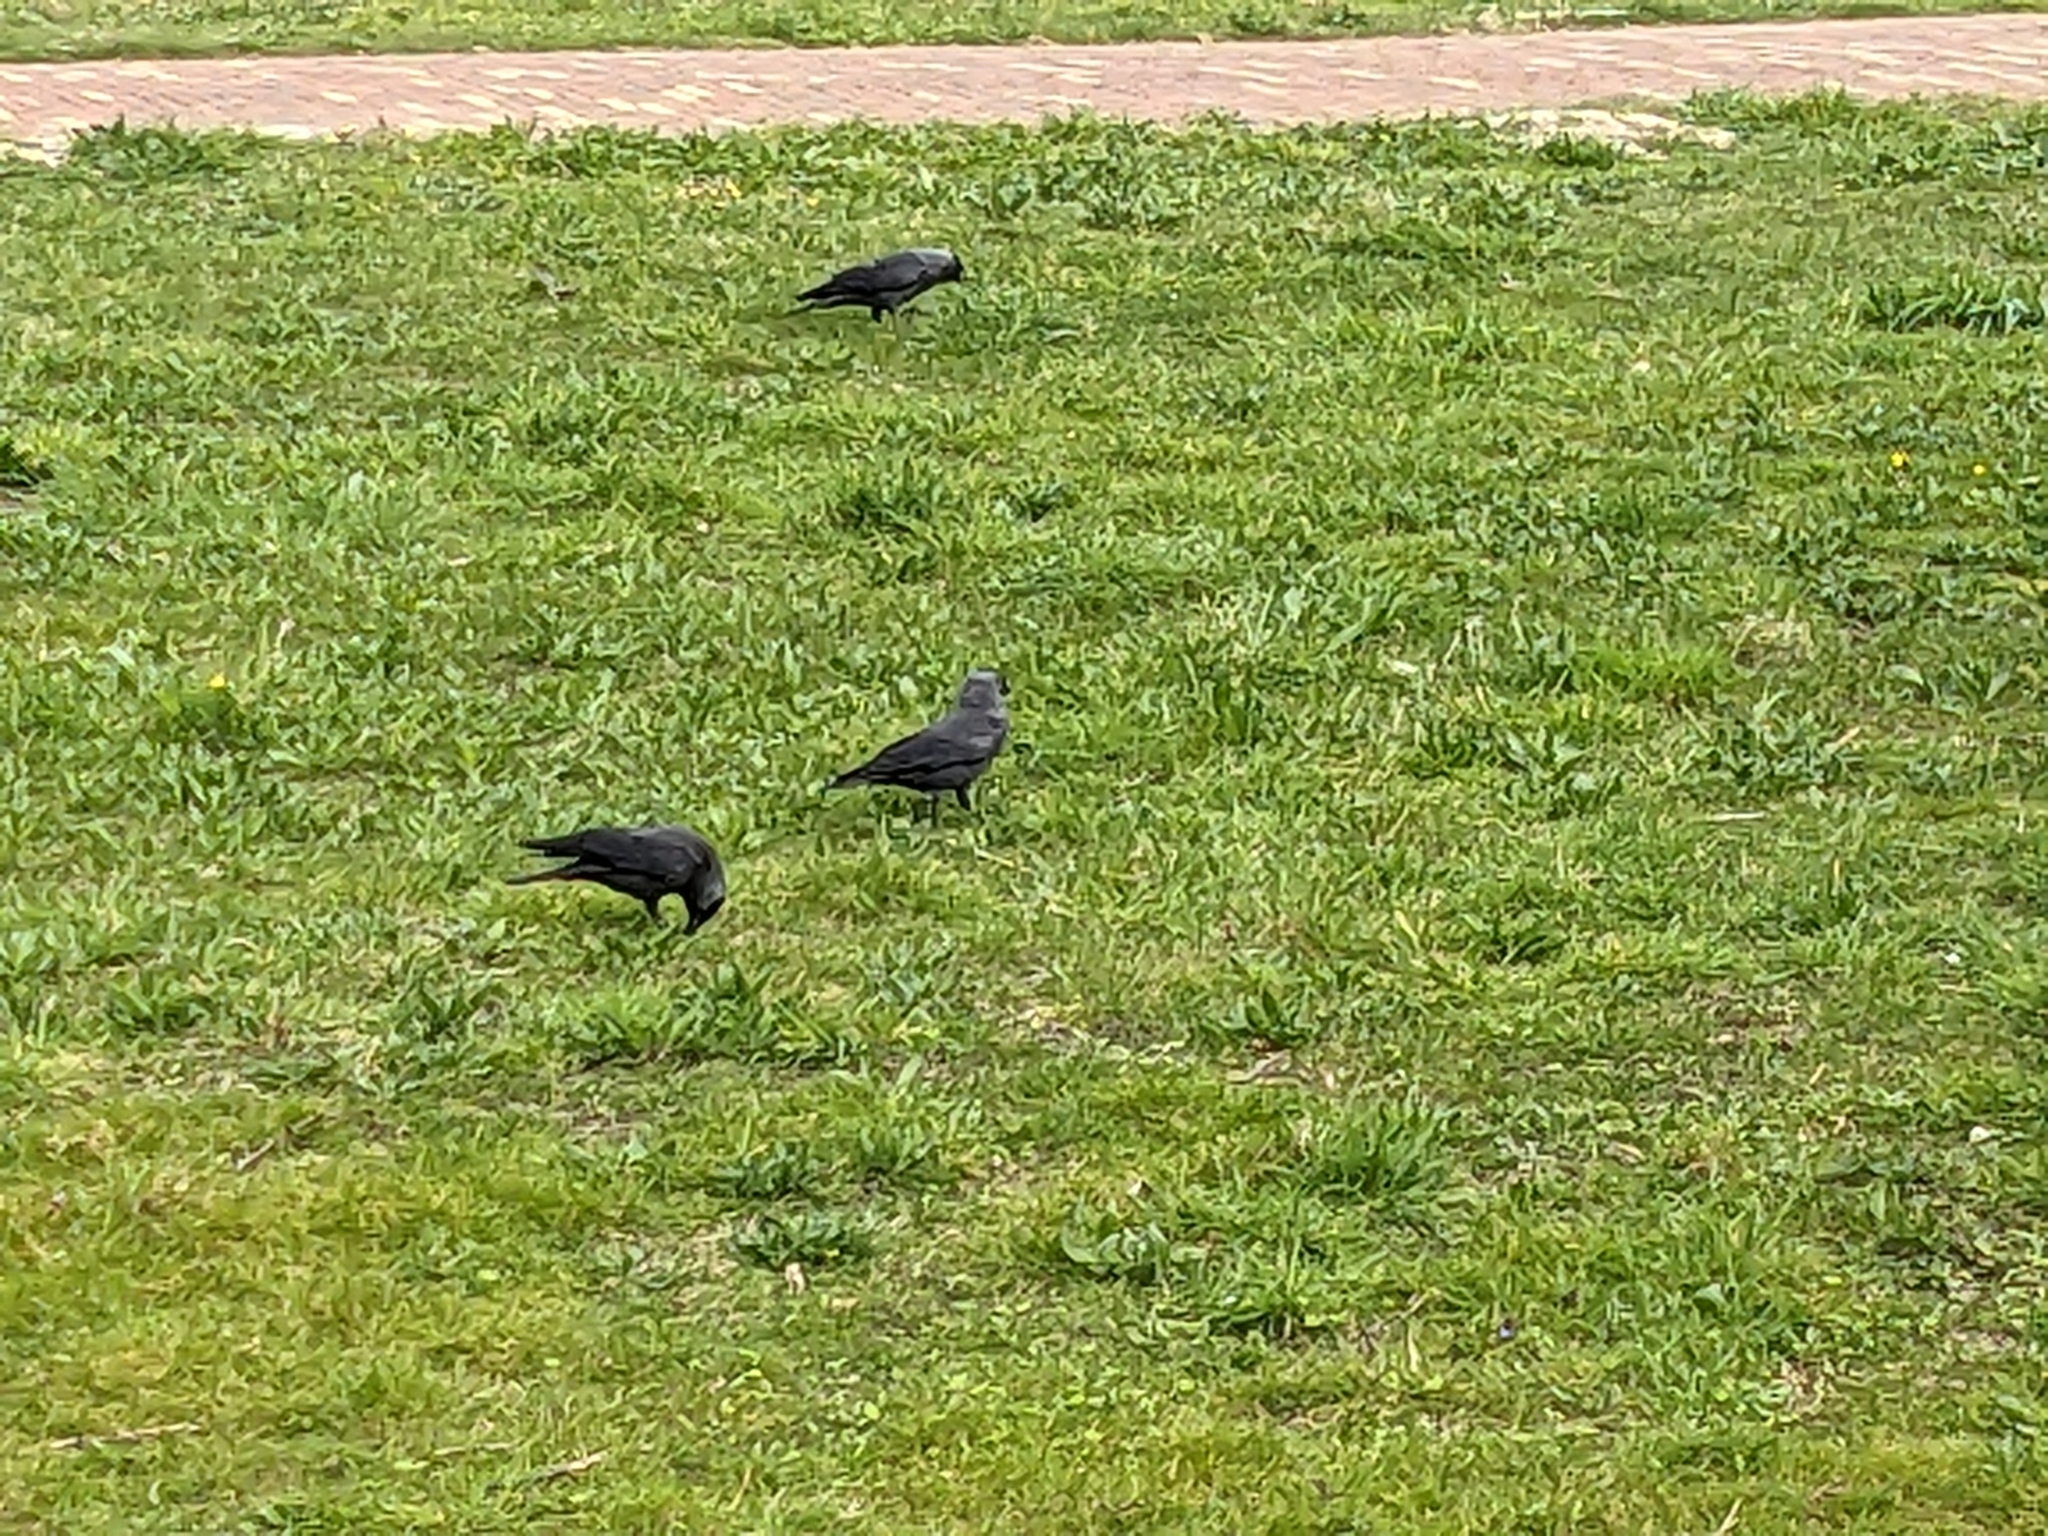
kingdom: Animalia
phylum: Chordata
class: Aves
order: Passeriformes
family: Corvidae
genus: Coloeus
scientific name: Coloeus monedula
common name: Western jackdaw
